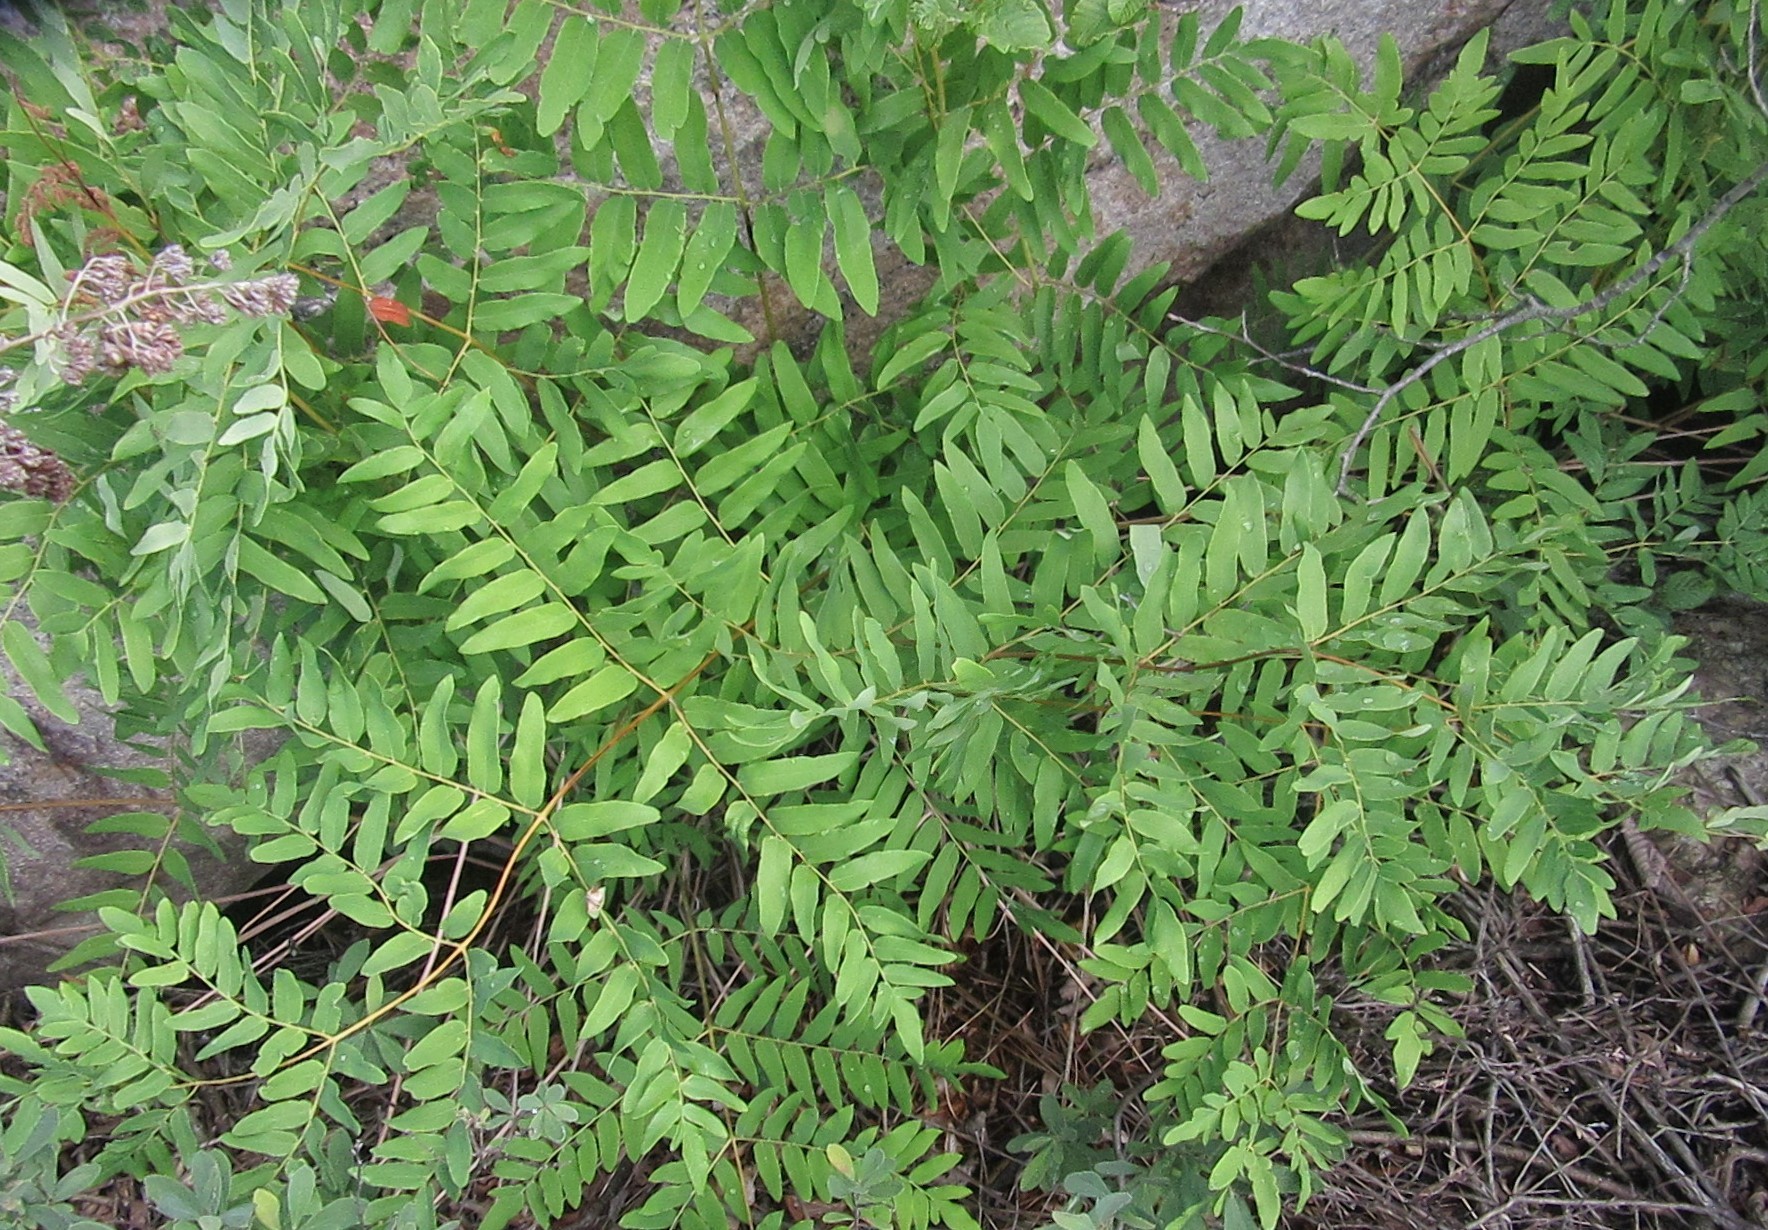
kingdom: Plantae
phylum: Tracheophyta
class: Polypodiopsida
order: Osmundales
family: Osmundaceae
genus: Osmunda
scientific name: Osmunda spectabilis
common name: American royal fern
